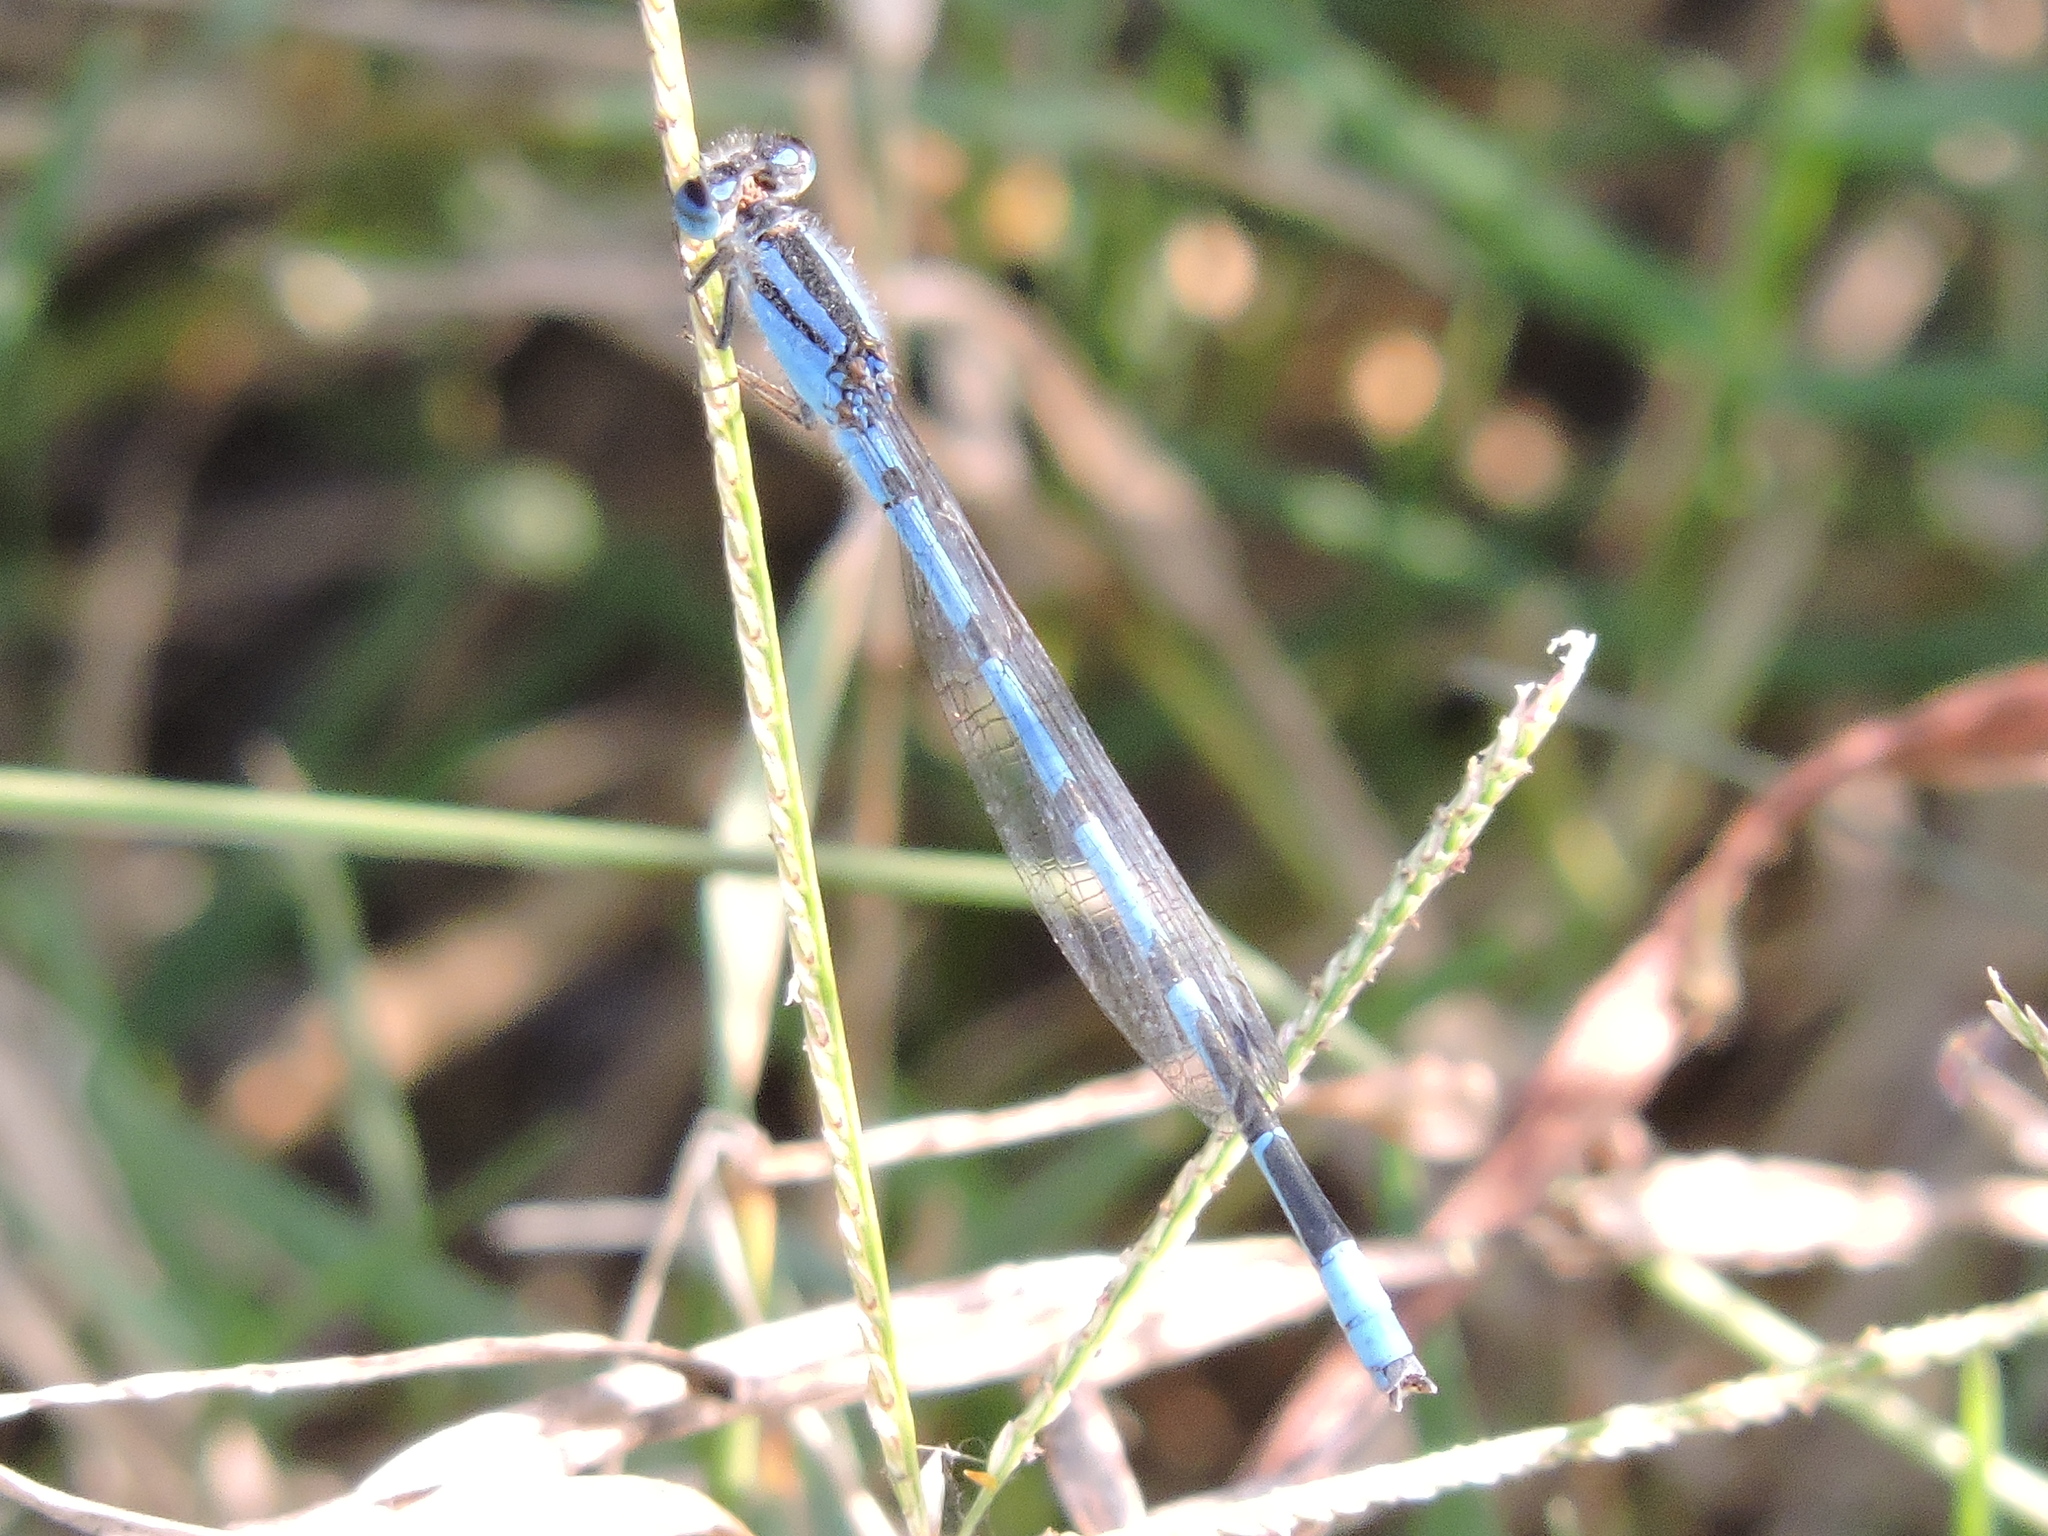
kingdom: Animalia
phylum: Arthropoda
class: Insecta
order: Odonata
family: Coenagrionidae
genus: Enallagma
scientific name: Enallagma civile
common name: Damselfly
